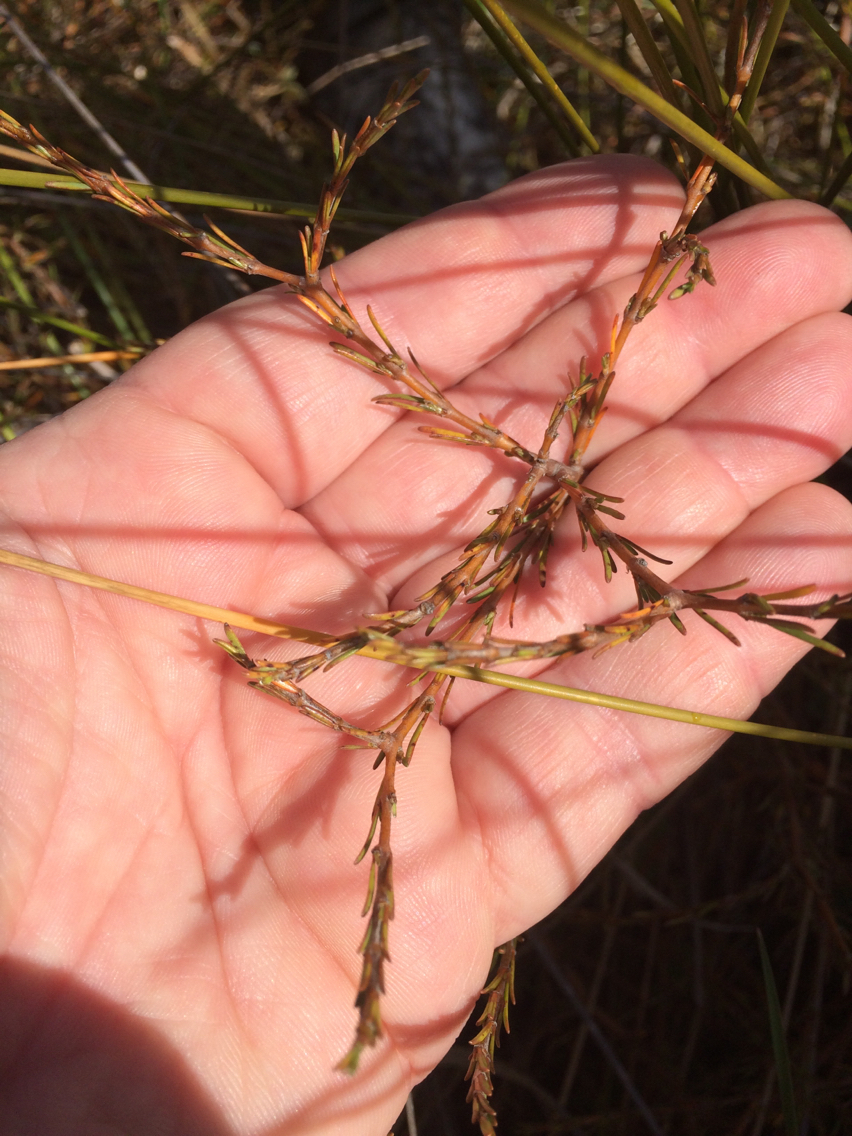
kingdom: Plantae
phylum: Tracheophyta
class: Magnoliopsida
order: Gentianales
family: Rubiaceae
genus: Coprosma
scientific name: Coprosma acerosa
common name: Sand coprosma
